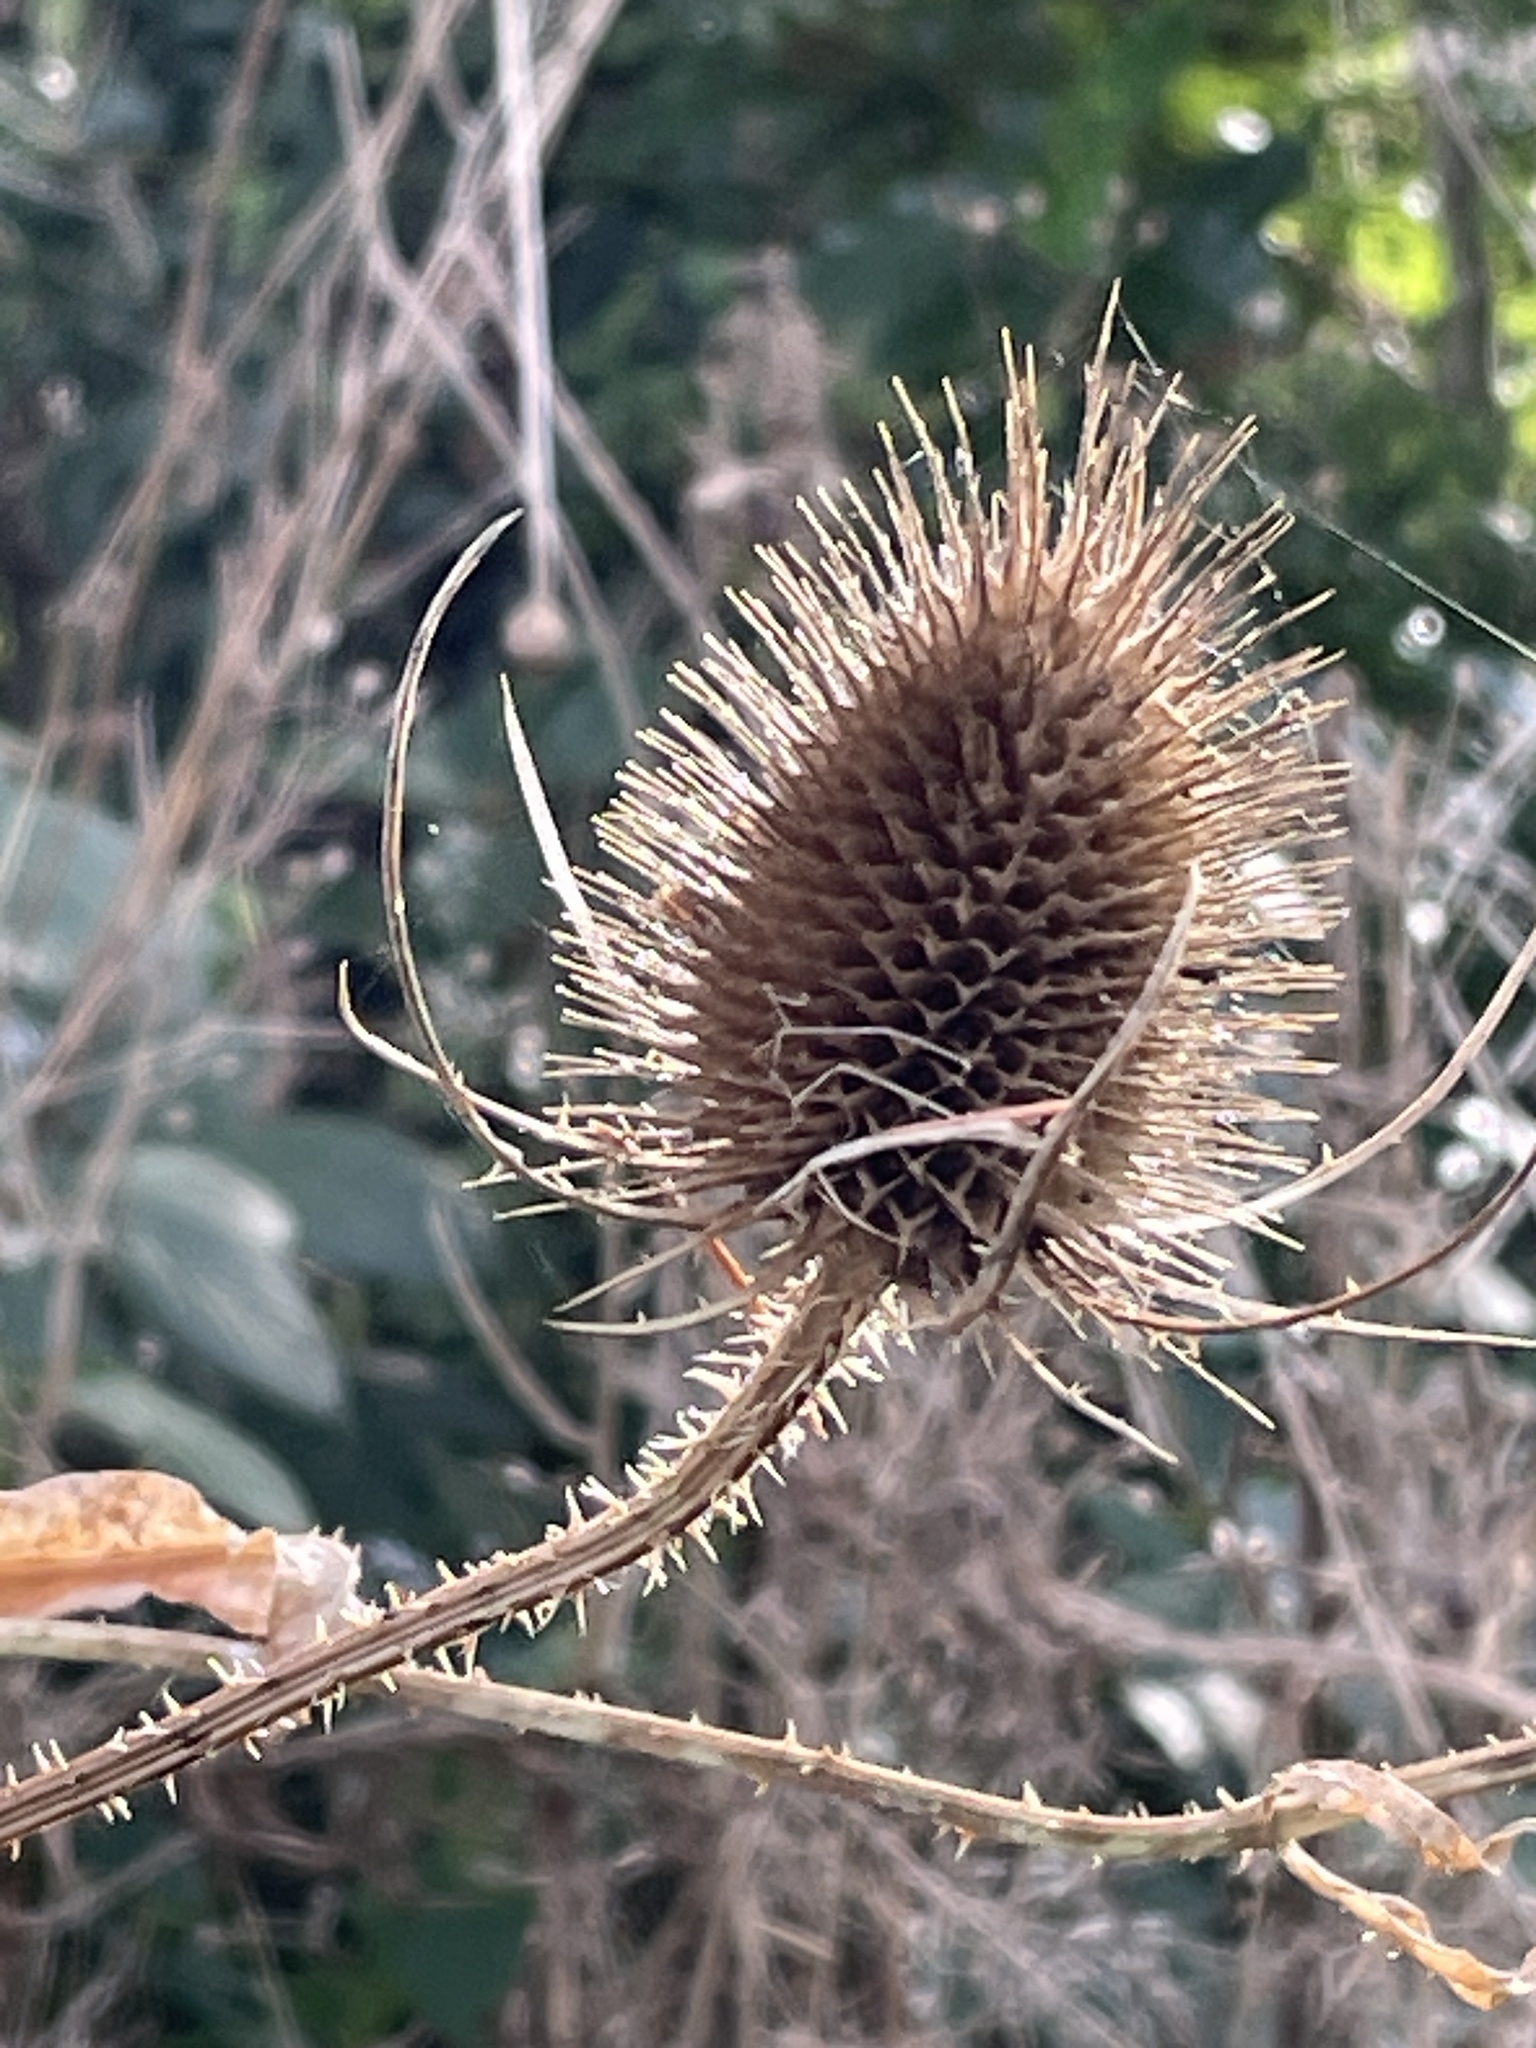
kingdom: Plantae
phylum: Tracheophyta
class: Magnoliopsida
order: Dipsacales
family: Caprifoliaceae
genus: Dipsacus
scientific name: Dipsacus fullonum
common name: Teasel
